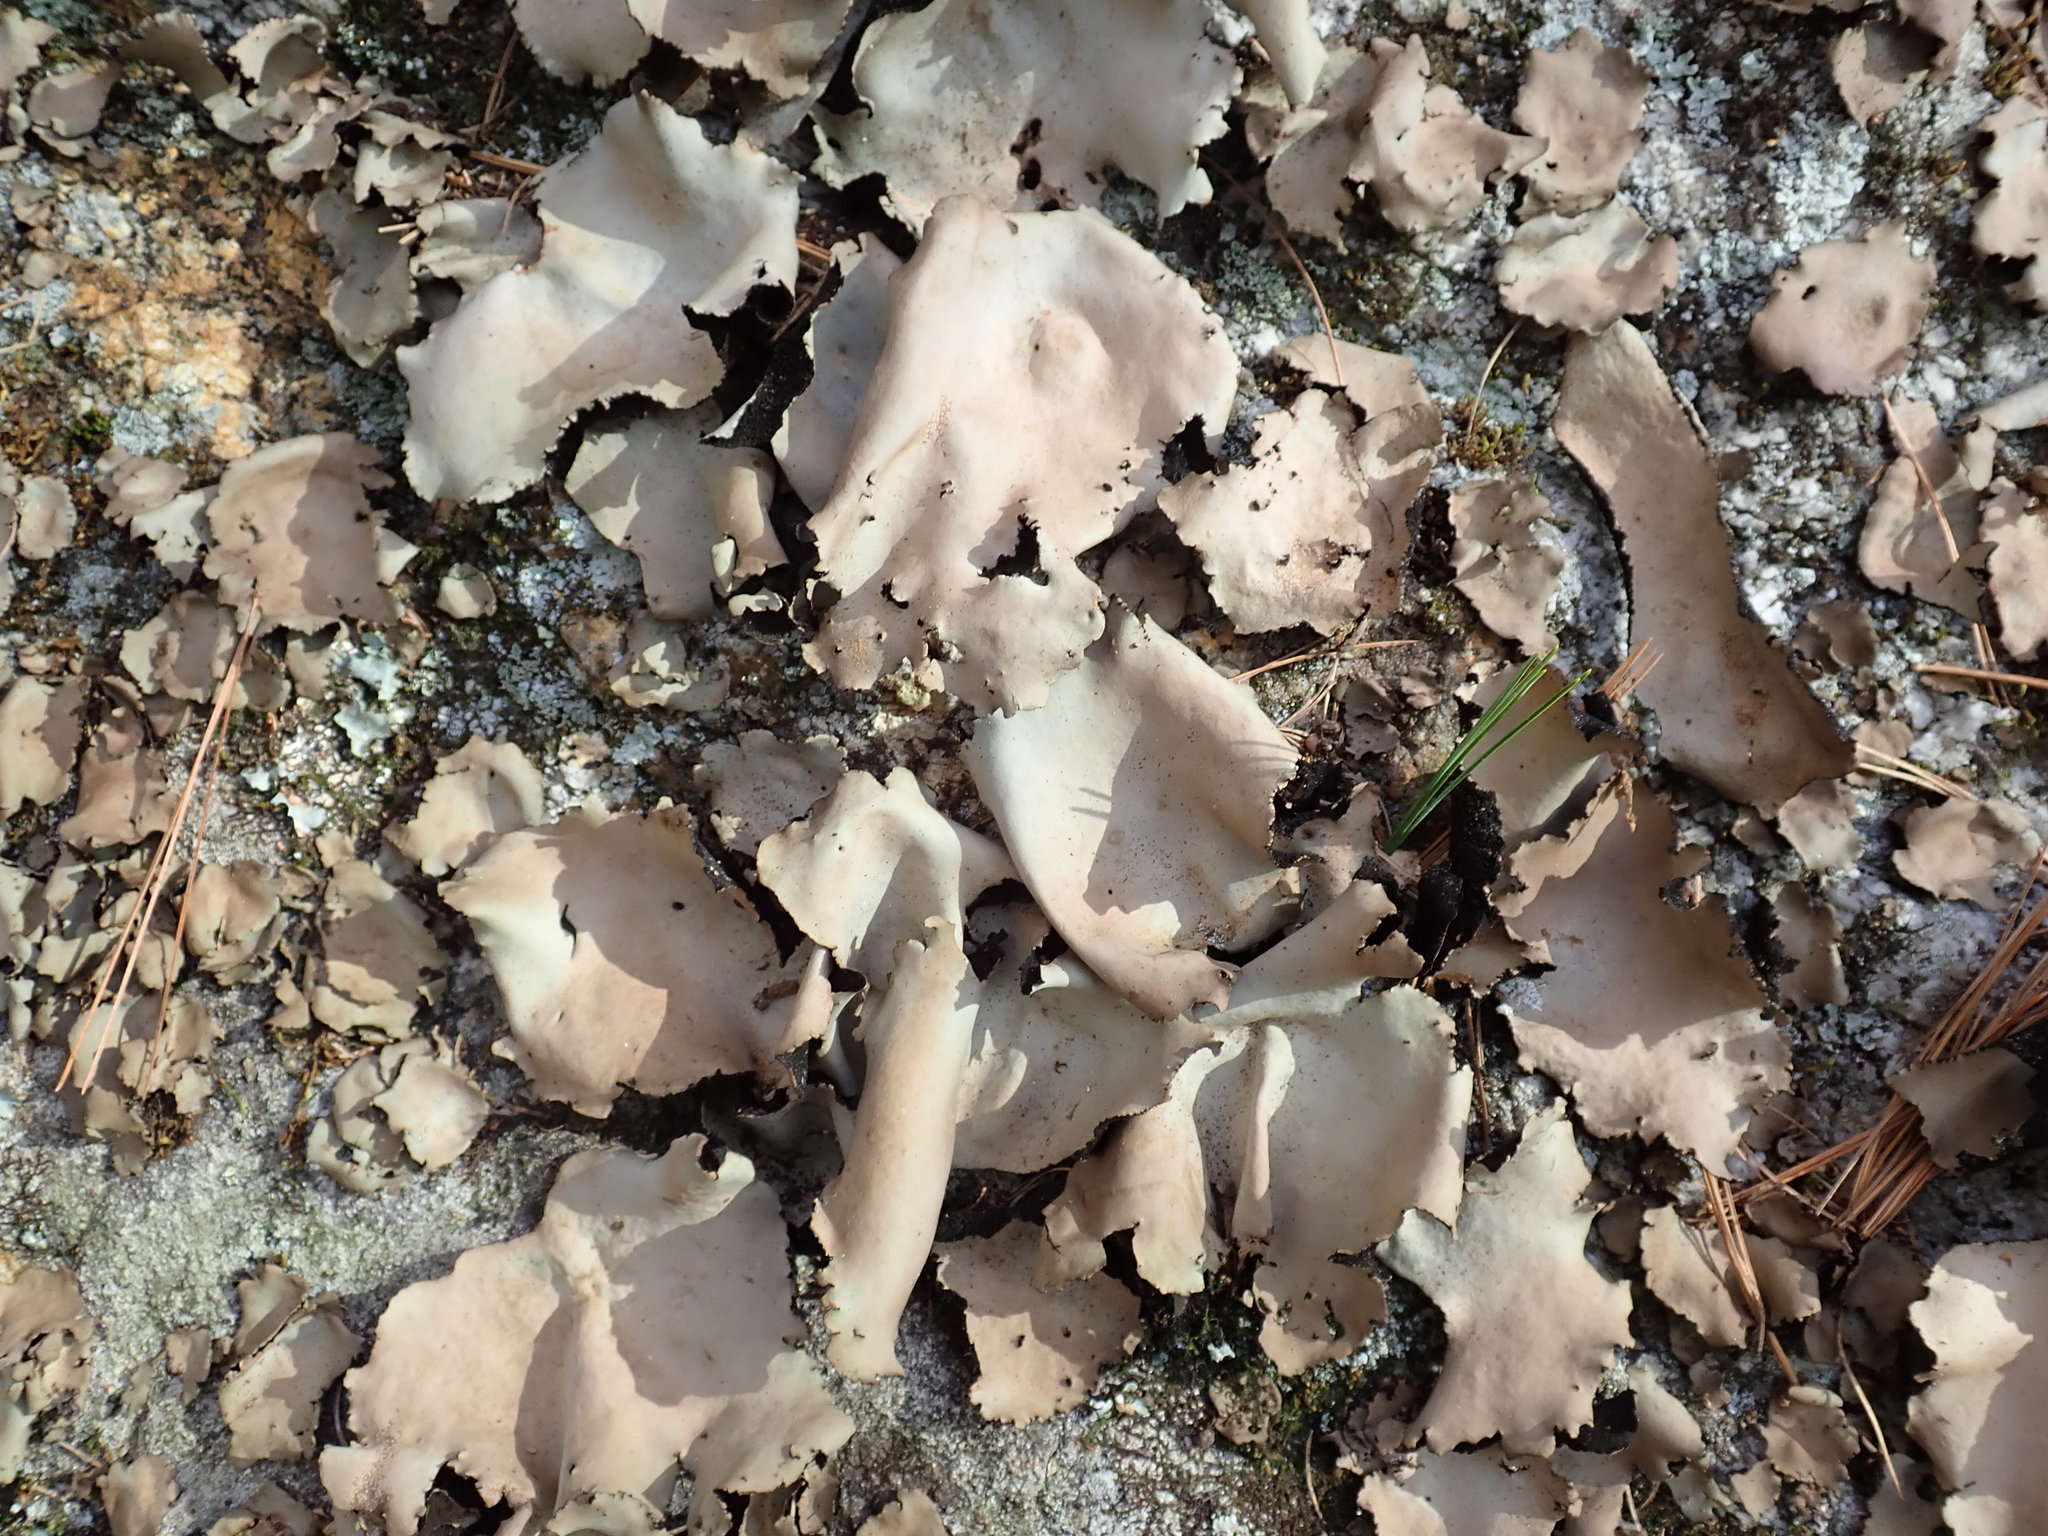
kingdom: Fungi
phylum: Ascomycota
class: Lecanoromycetes
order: Umbilicariales
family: Umbilicariaceae
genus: Umbilicaria
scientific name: Umbilicaria mammulata
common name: Smooth rock tripe
